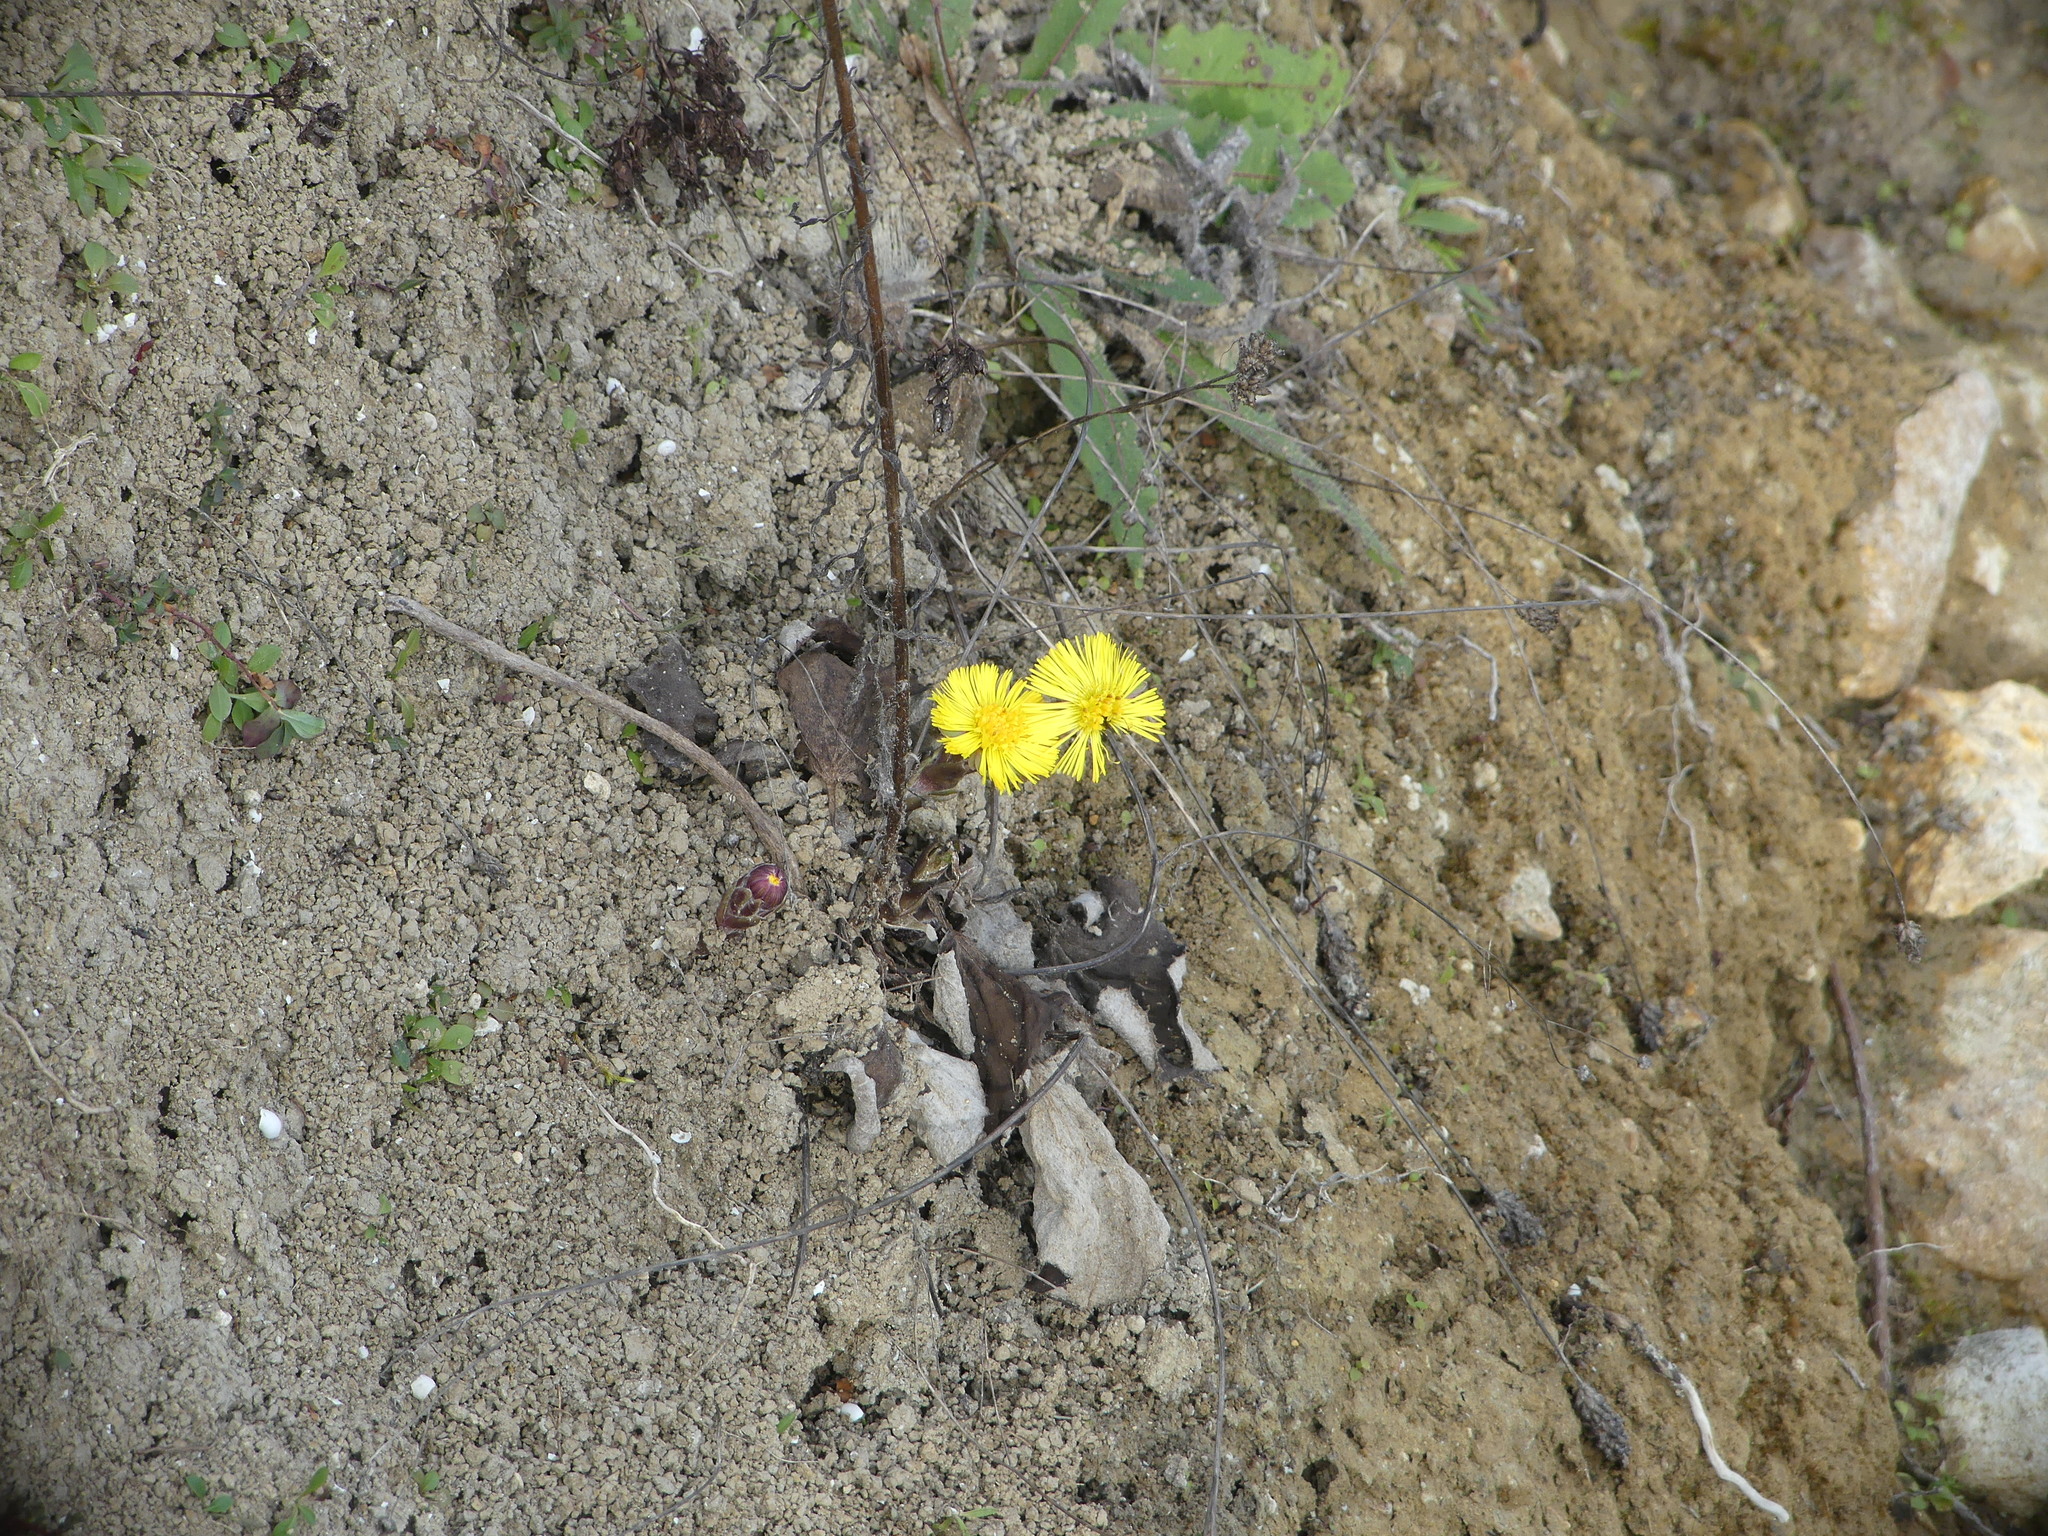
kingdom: Plantae
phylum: Tracheophyta
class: Magnoliopsida
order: Asterales
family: Asteraceae
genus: Tussilago
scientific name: Tussilago farfara
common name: Coltsfoot
